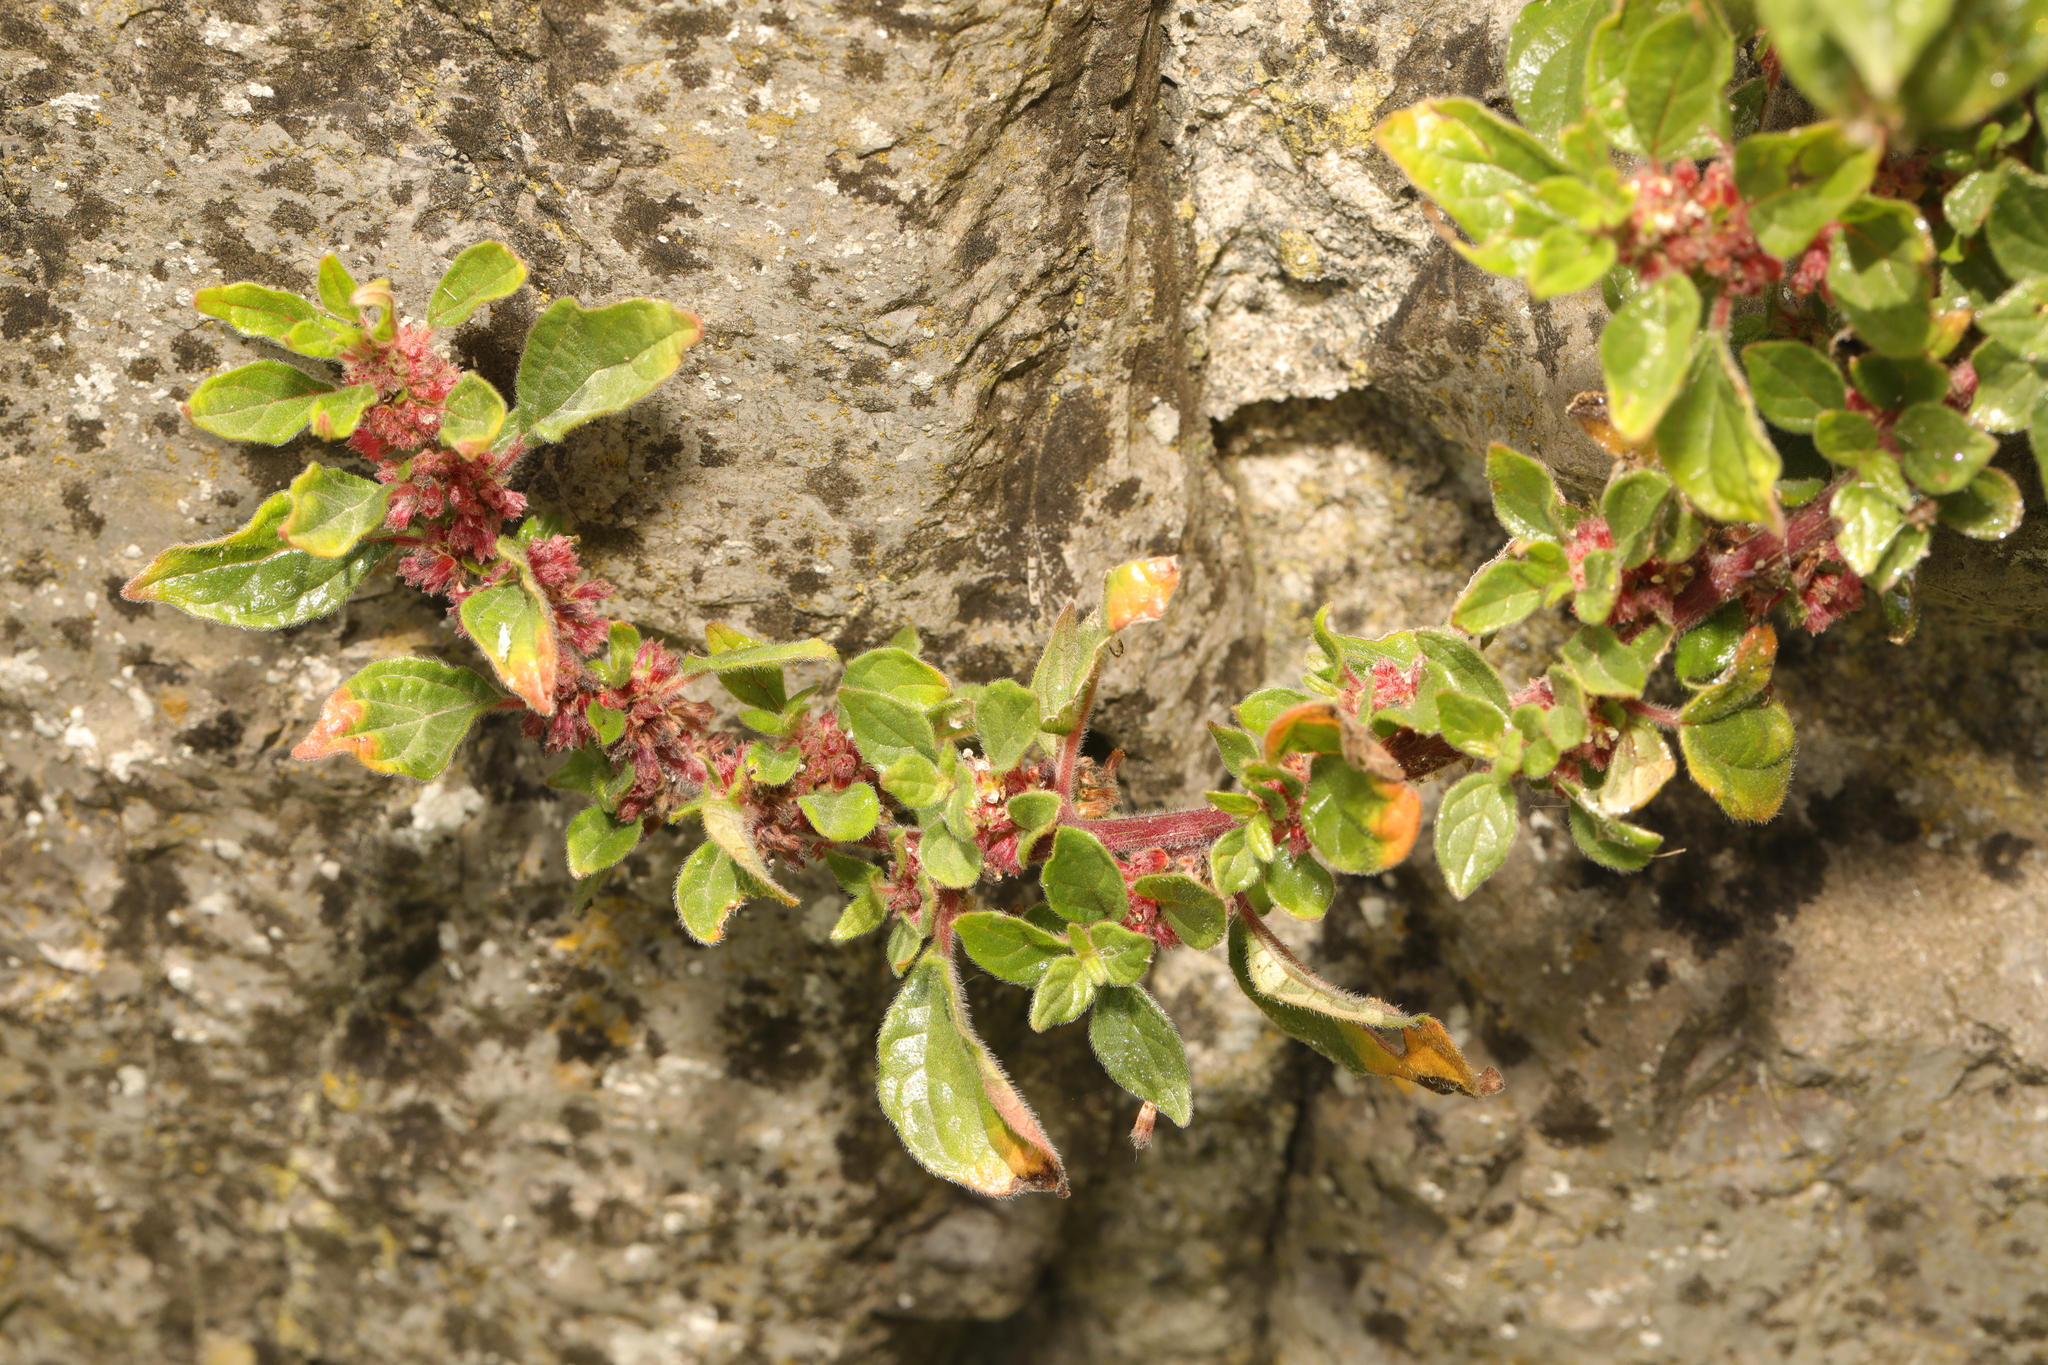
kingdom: Plantae
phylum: Tracheophyta
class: Magnoliopsida
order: Rosales
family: Urticaceae
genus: Parietaria
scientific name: Parietaria judaica
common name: Pellitory-of-the-wall
